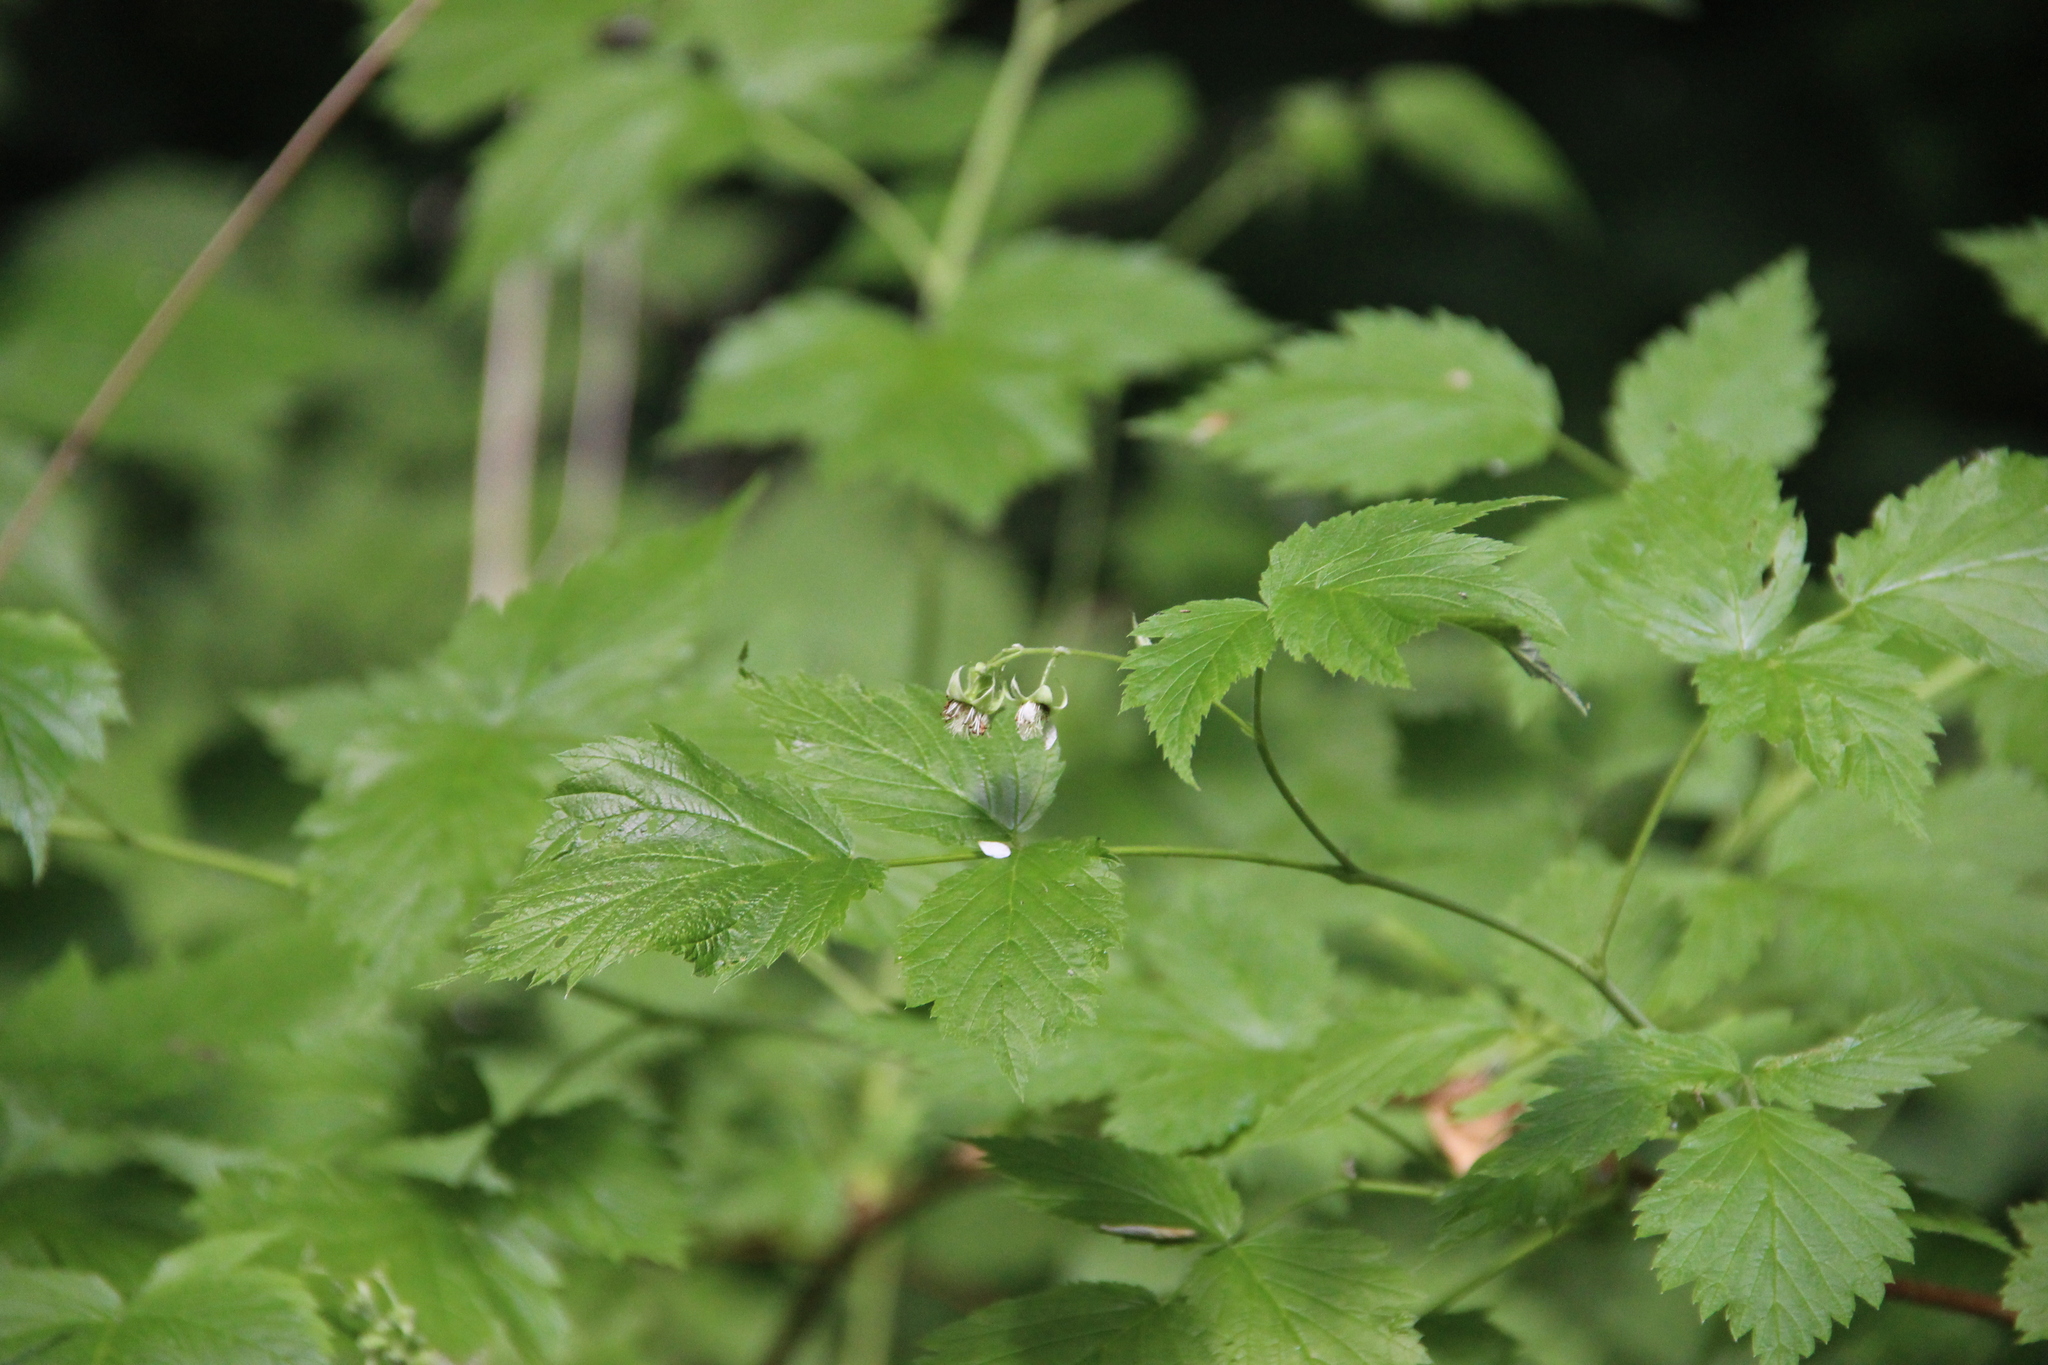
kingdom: Plantae
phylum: Tracheophyta
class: Magnoliopsida
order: Rosales
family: Rosaceae
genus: Rubus
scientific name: Rubus idaeus
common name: Raspberry
